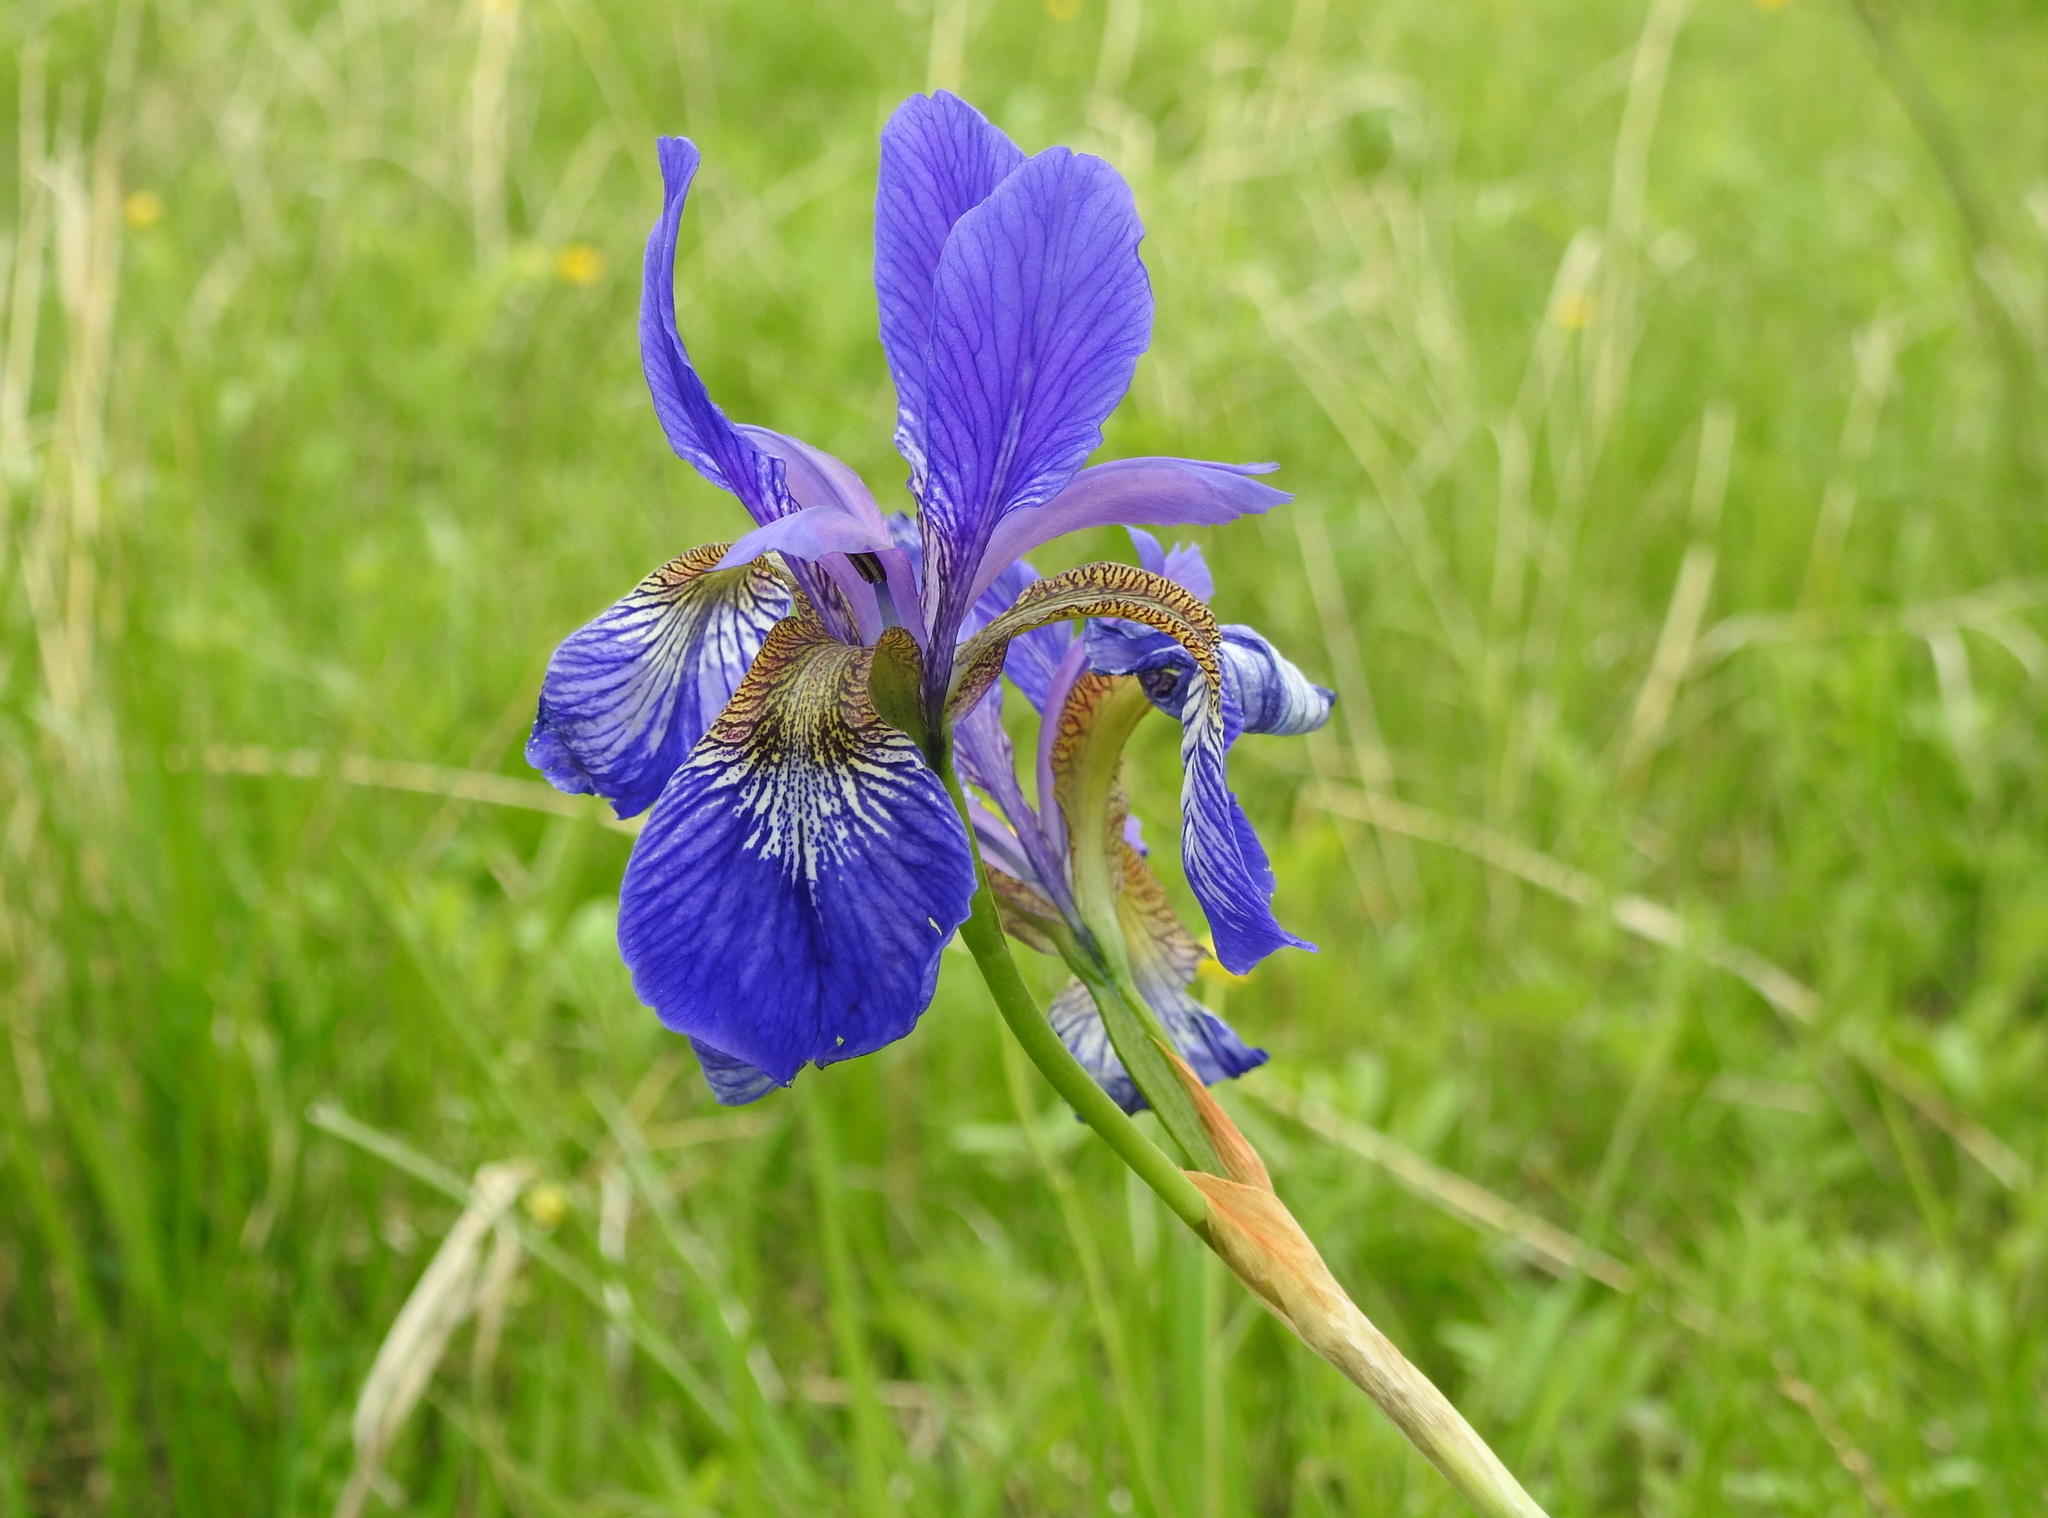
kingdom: Plantae
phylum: Tracheophyta
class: Liliopsida
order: Asparagales
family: Iridaceae
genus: Iris
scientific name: Iris sanguinea
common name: Blood iris
